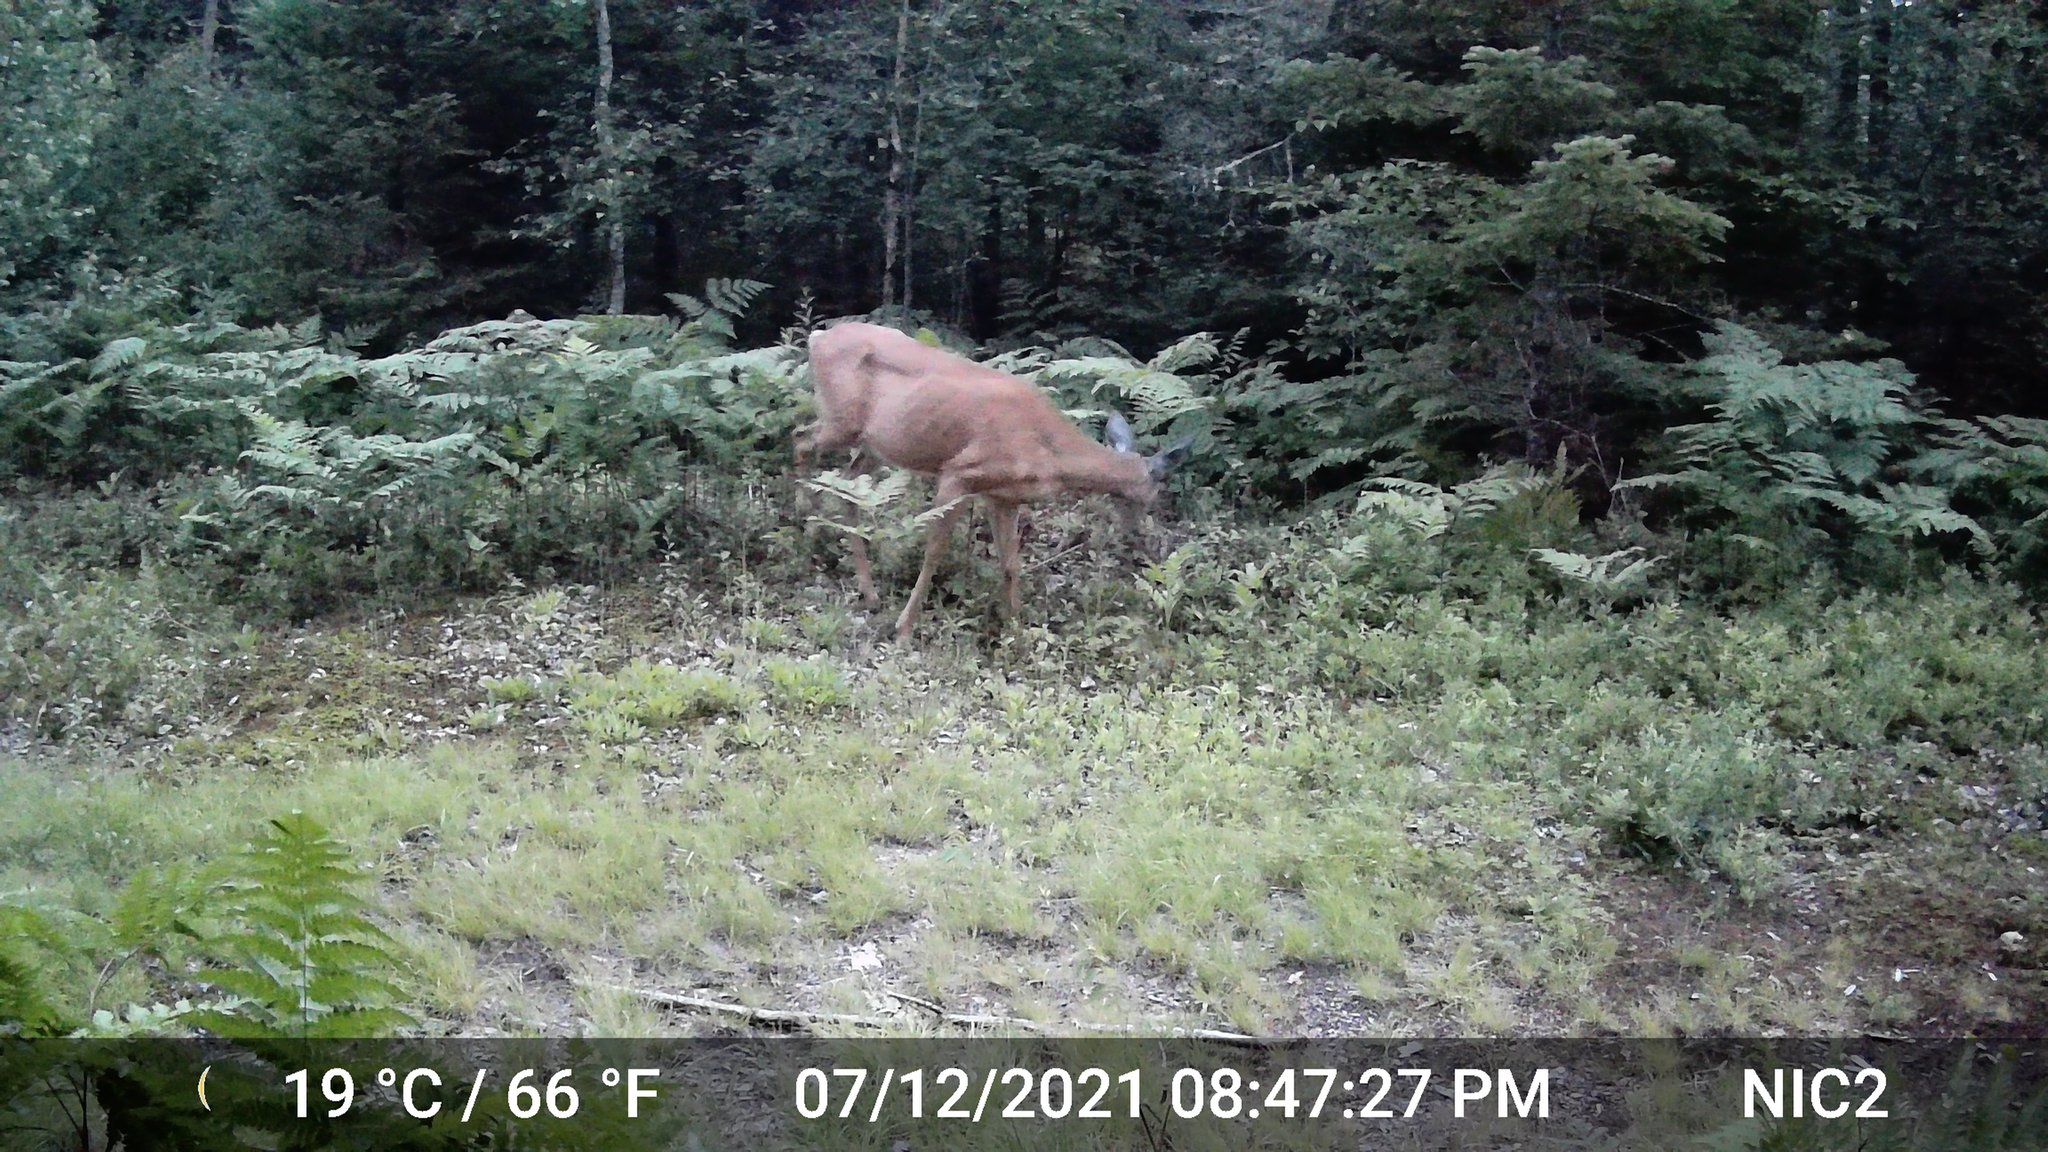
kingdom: Animalia
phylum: Chordata
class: Mammalia
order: Artiodactyla
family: Cervidae
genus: Odocoileus
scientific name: Odocoileus virginianus
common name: White-tailed deer
